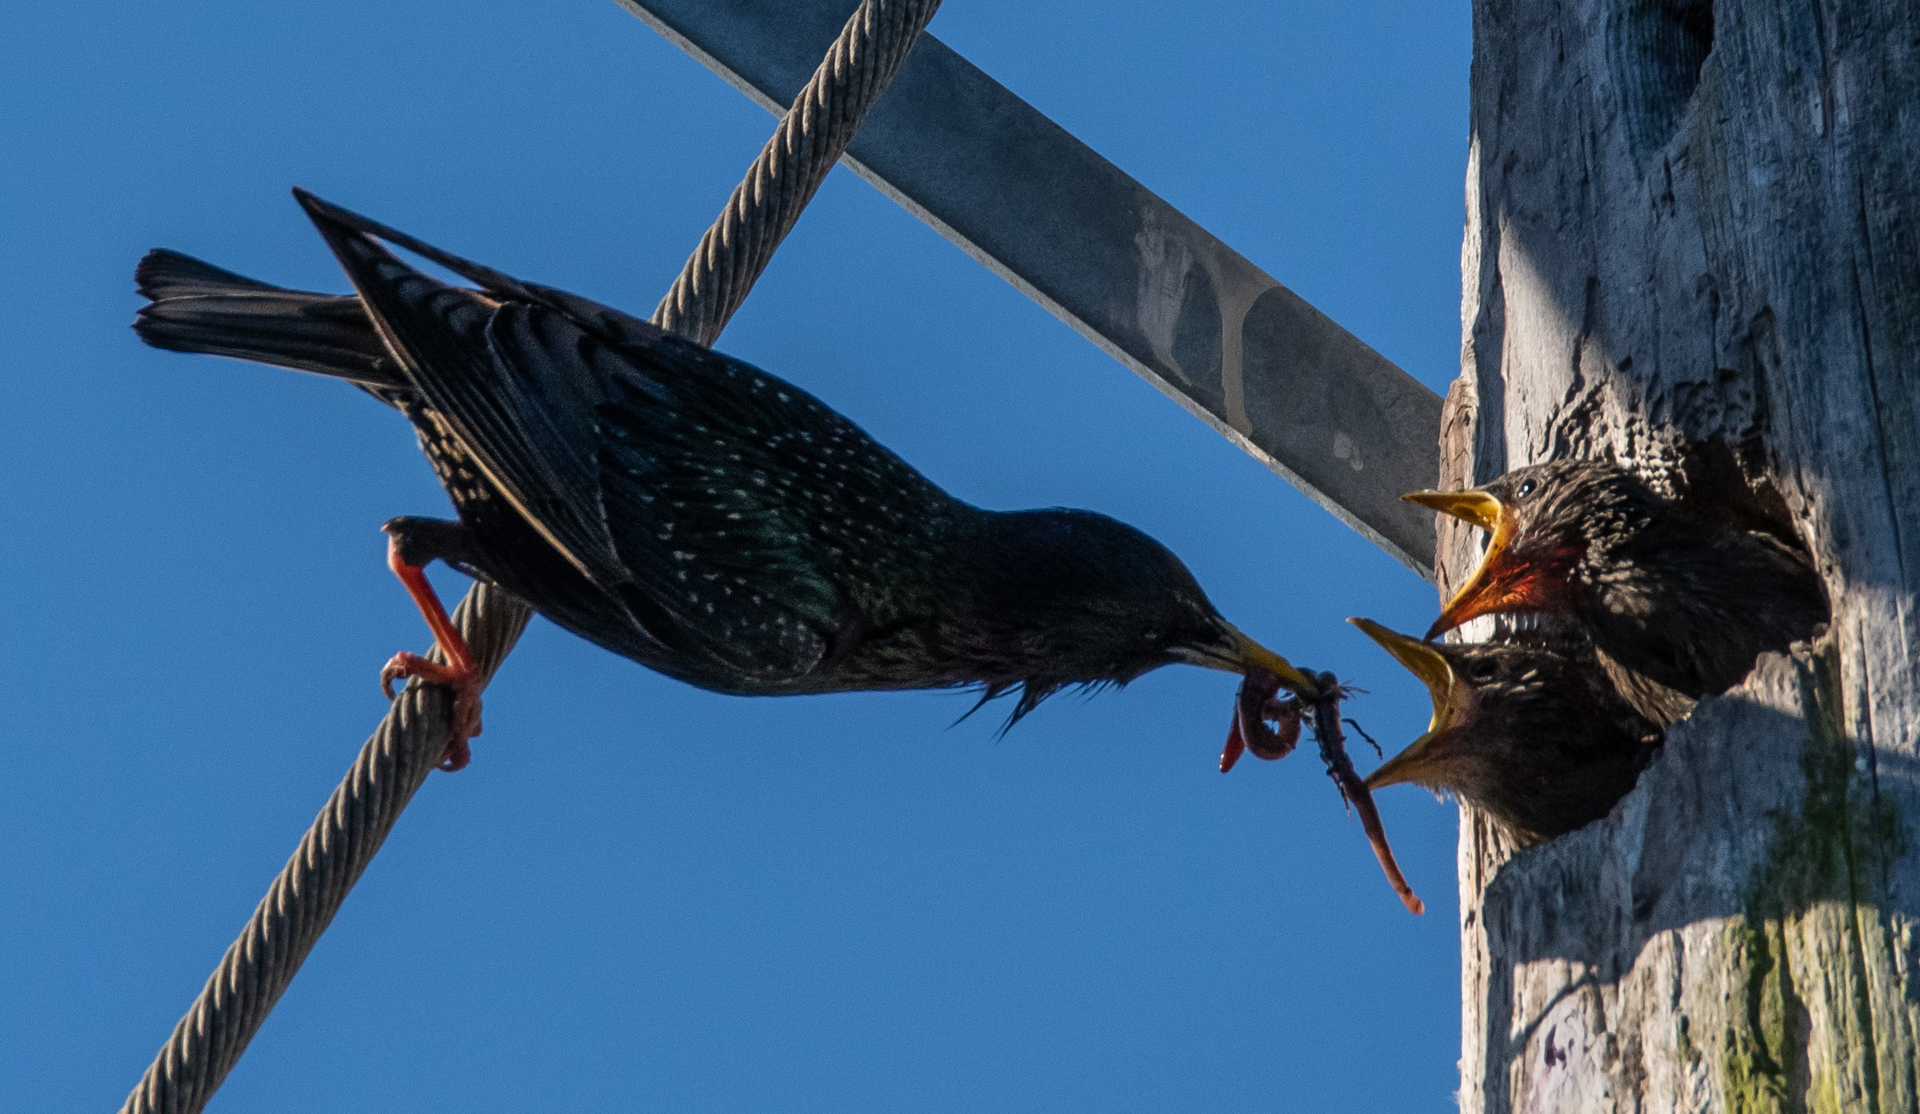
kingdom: Animalia
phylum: Chordata
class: Aves
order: Passeriformes
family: Sturnidae
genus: Sturnus
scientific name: Sturnus vulgaris
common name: Common starling
